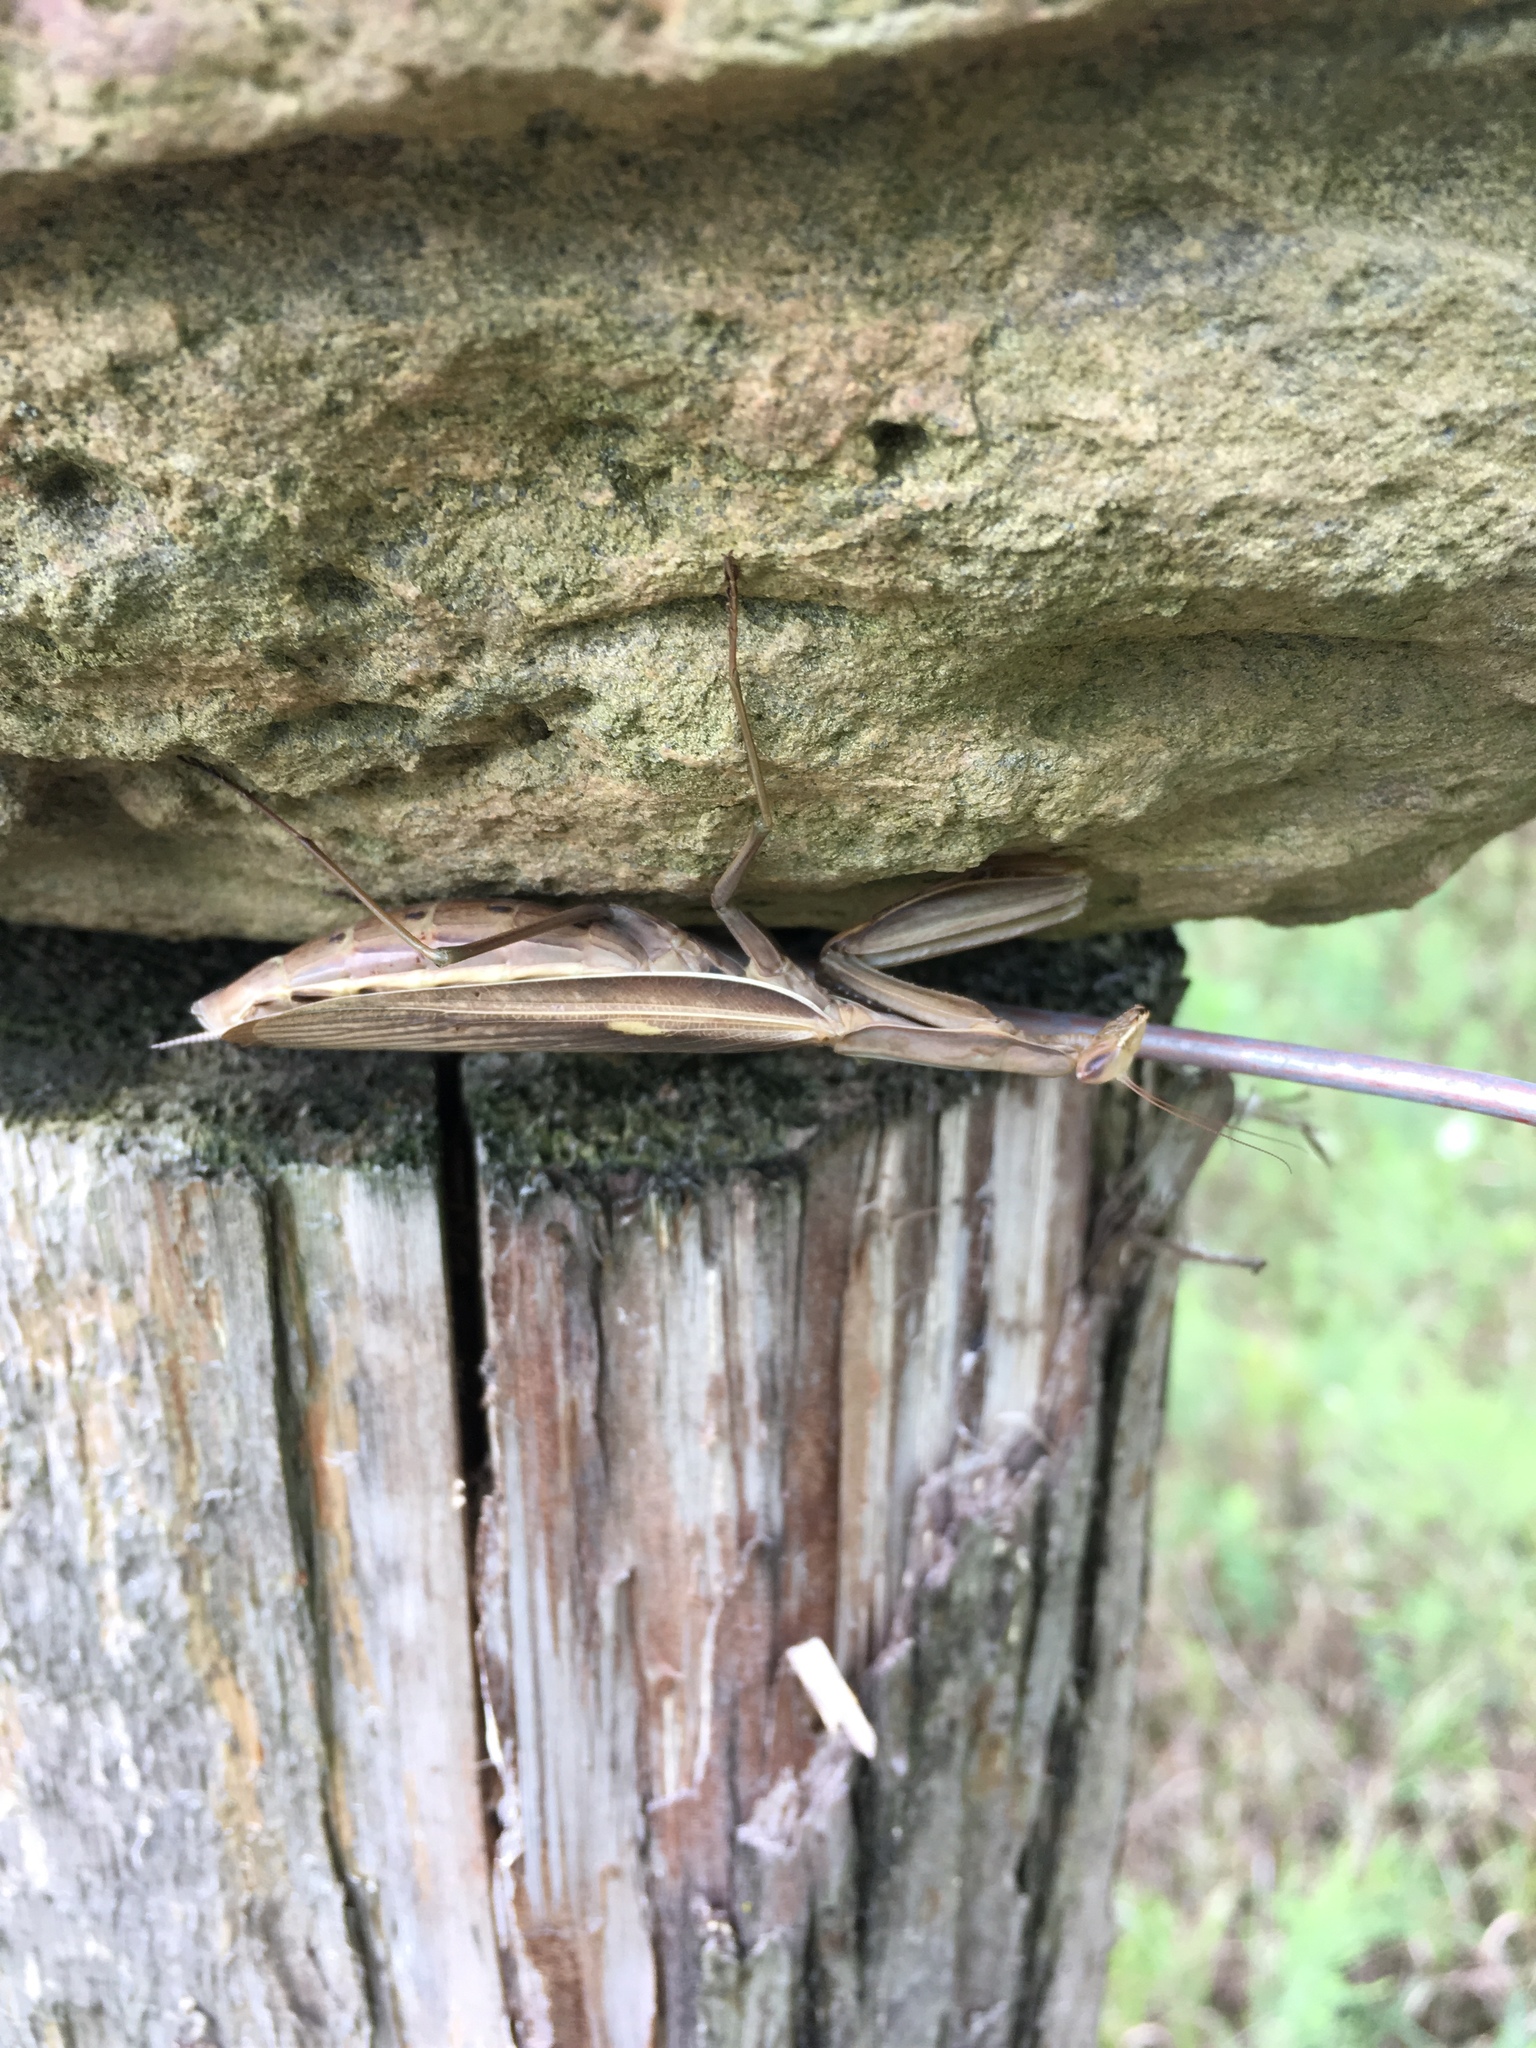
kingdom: Animalia
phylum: Arthropoda
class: Insecta
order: Mantodea
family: Mantidae
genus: Mantis
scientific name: Mantis religiosa
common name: Praying mantis
